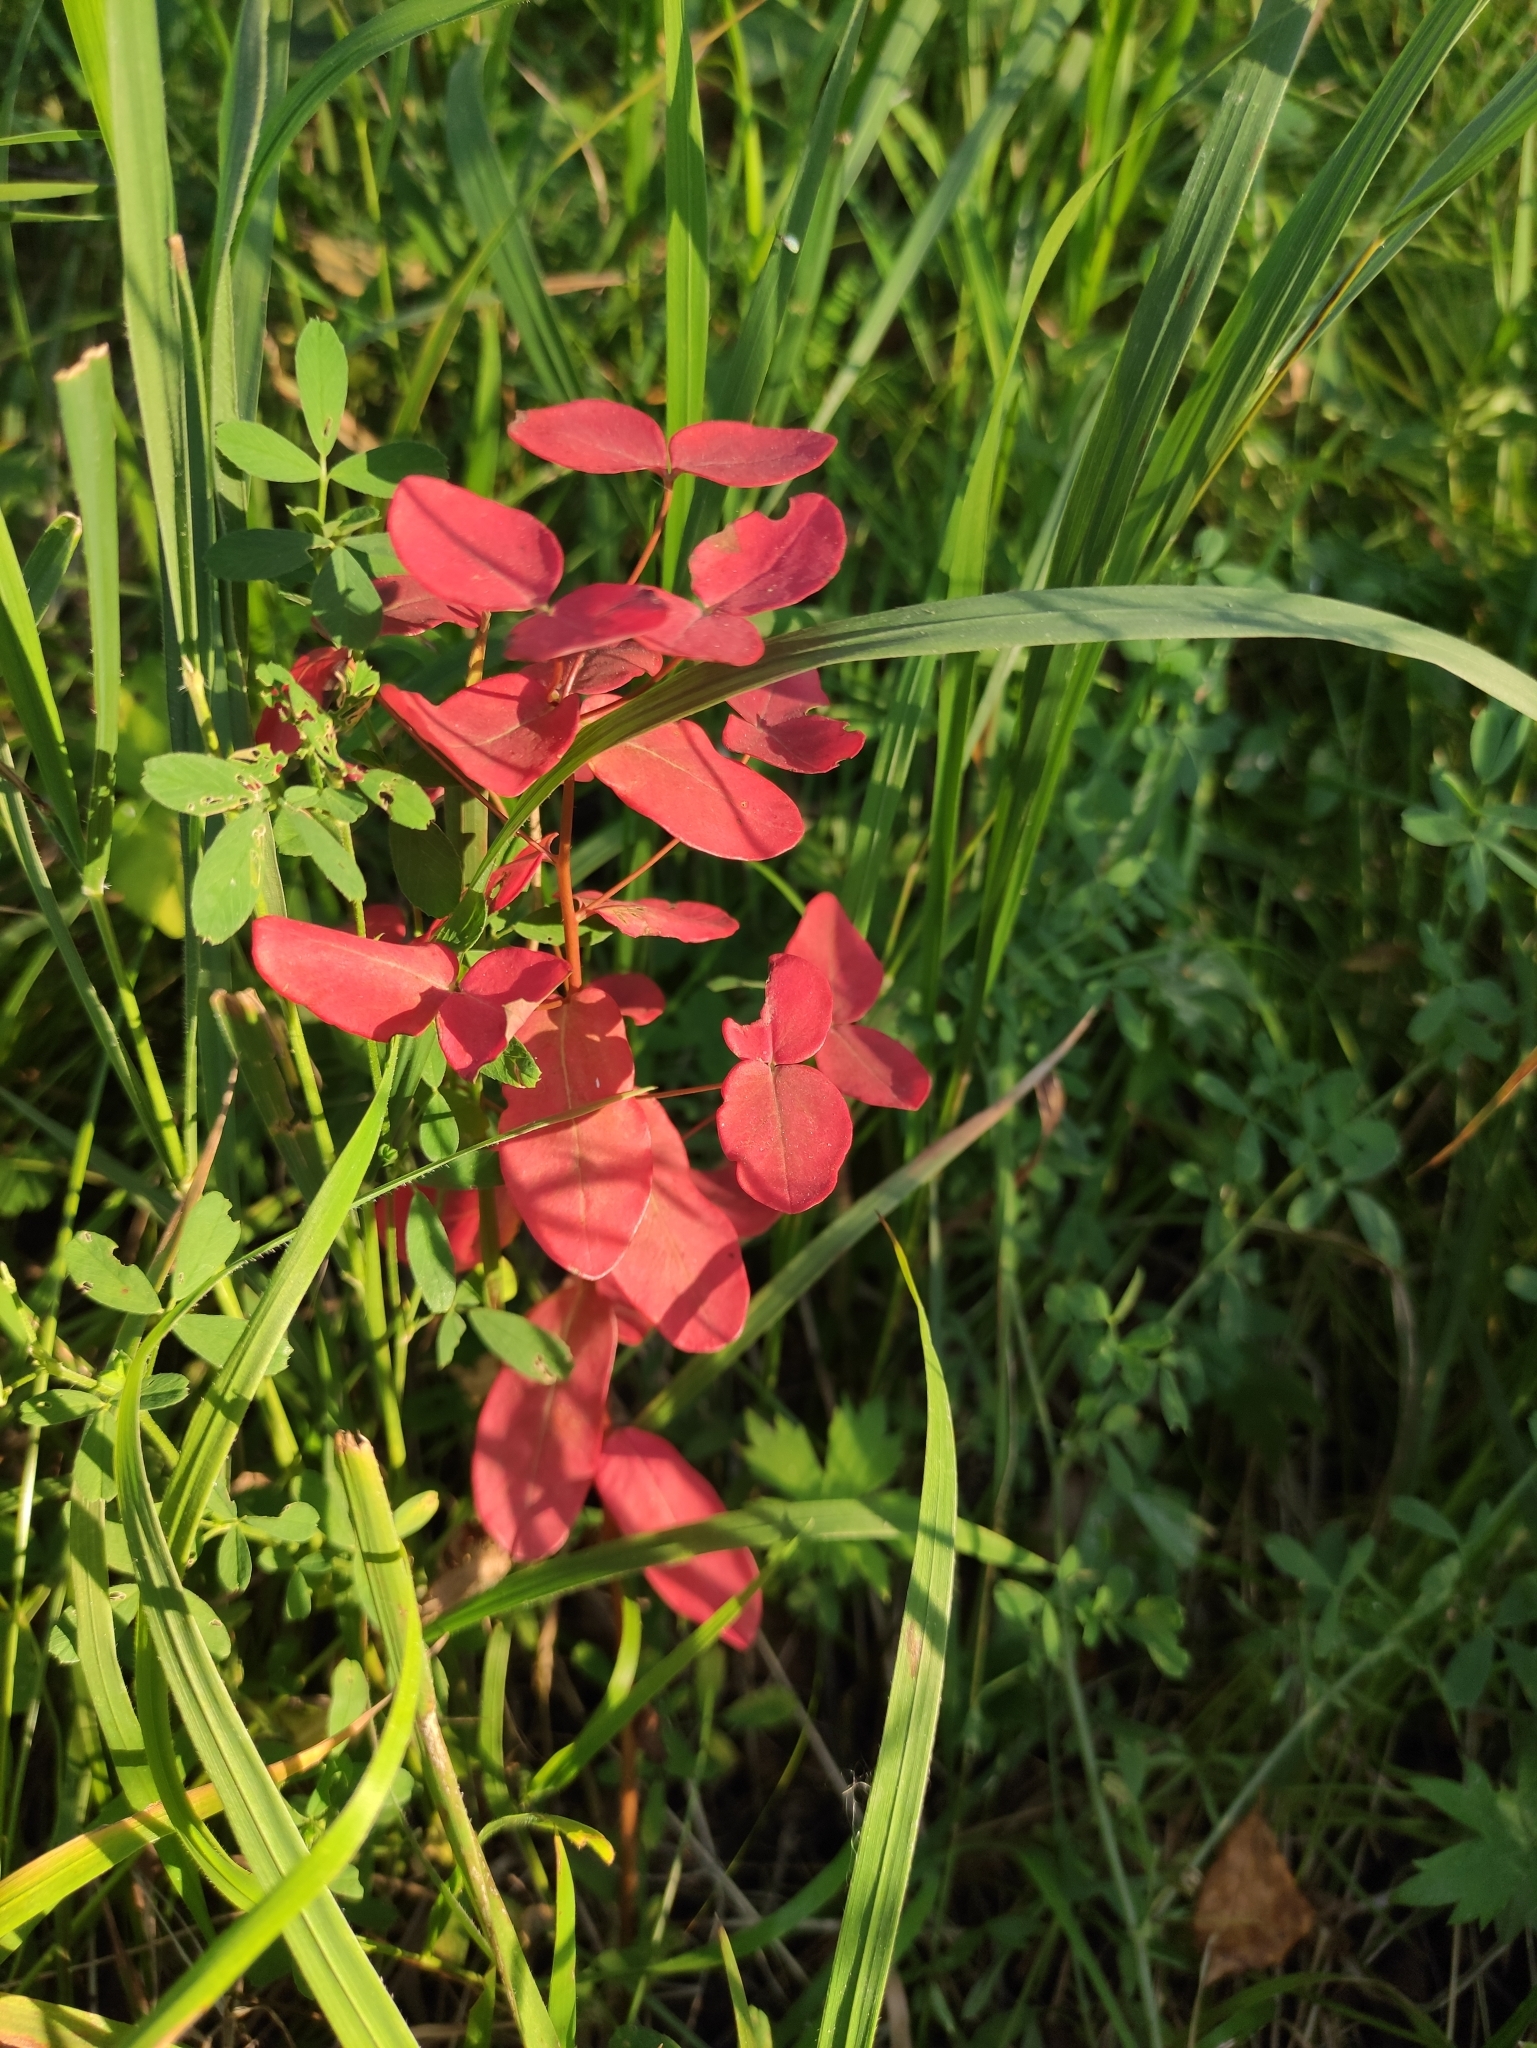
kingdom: Plantae
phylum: Tracheophyta
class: Magnoliopsida
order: Malpighiales
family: Euphorbiaceae
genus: Euphorbia
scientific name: Euphorbia jenisseiensis
